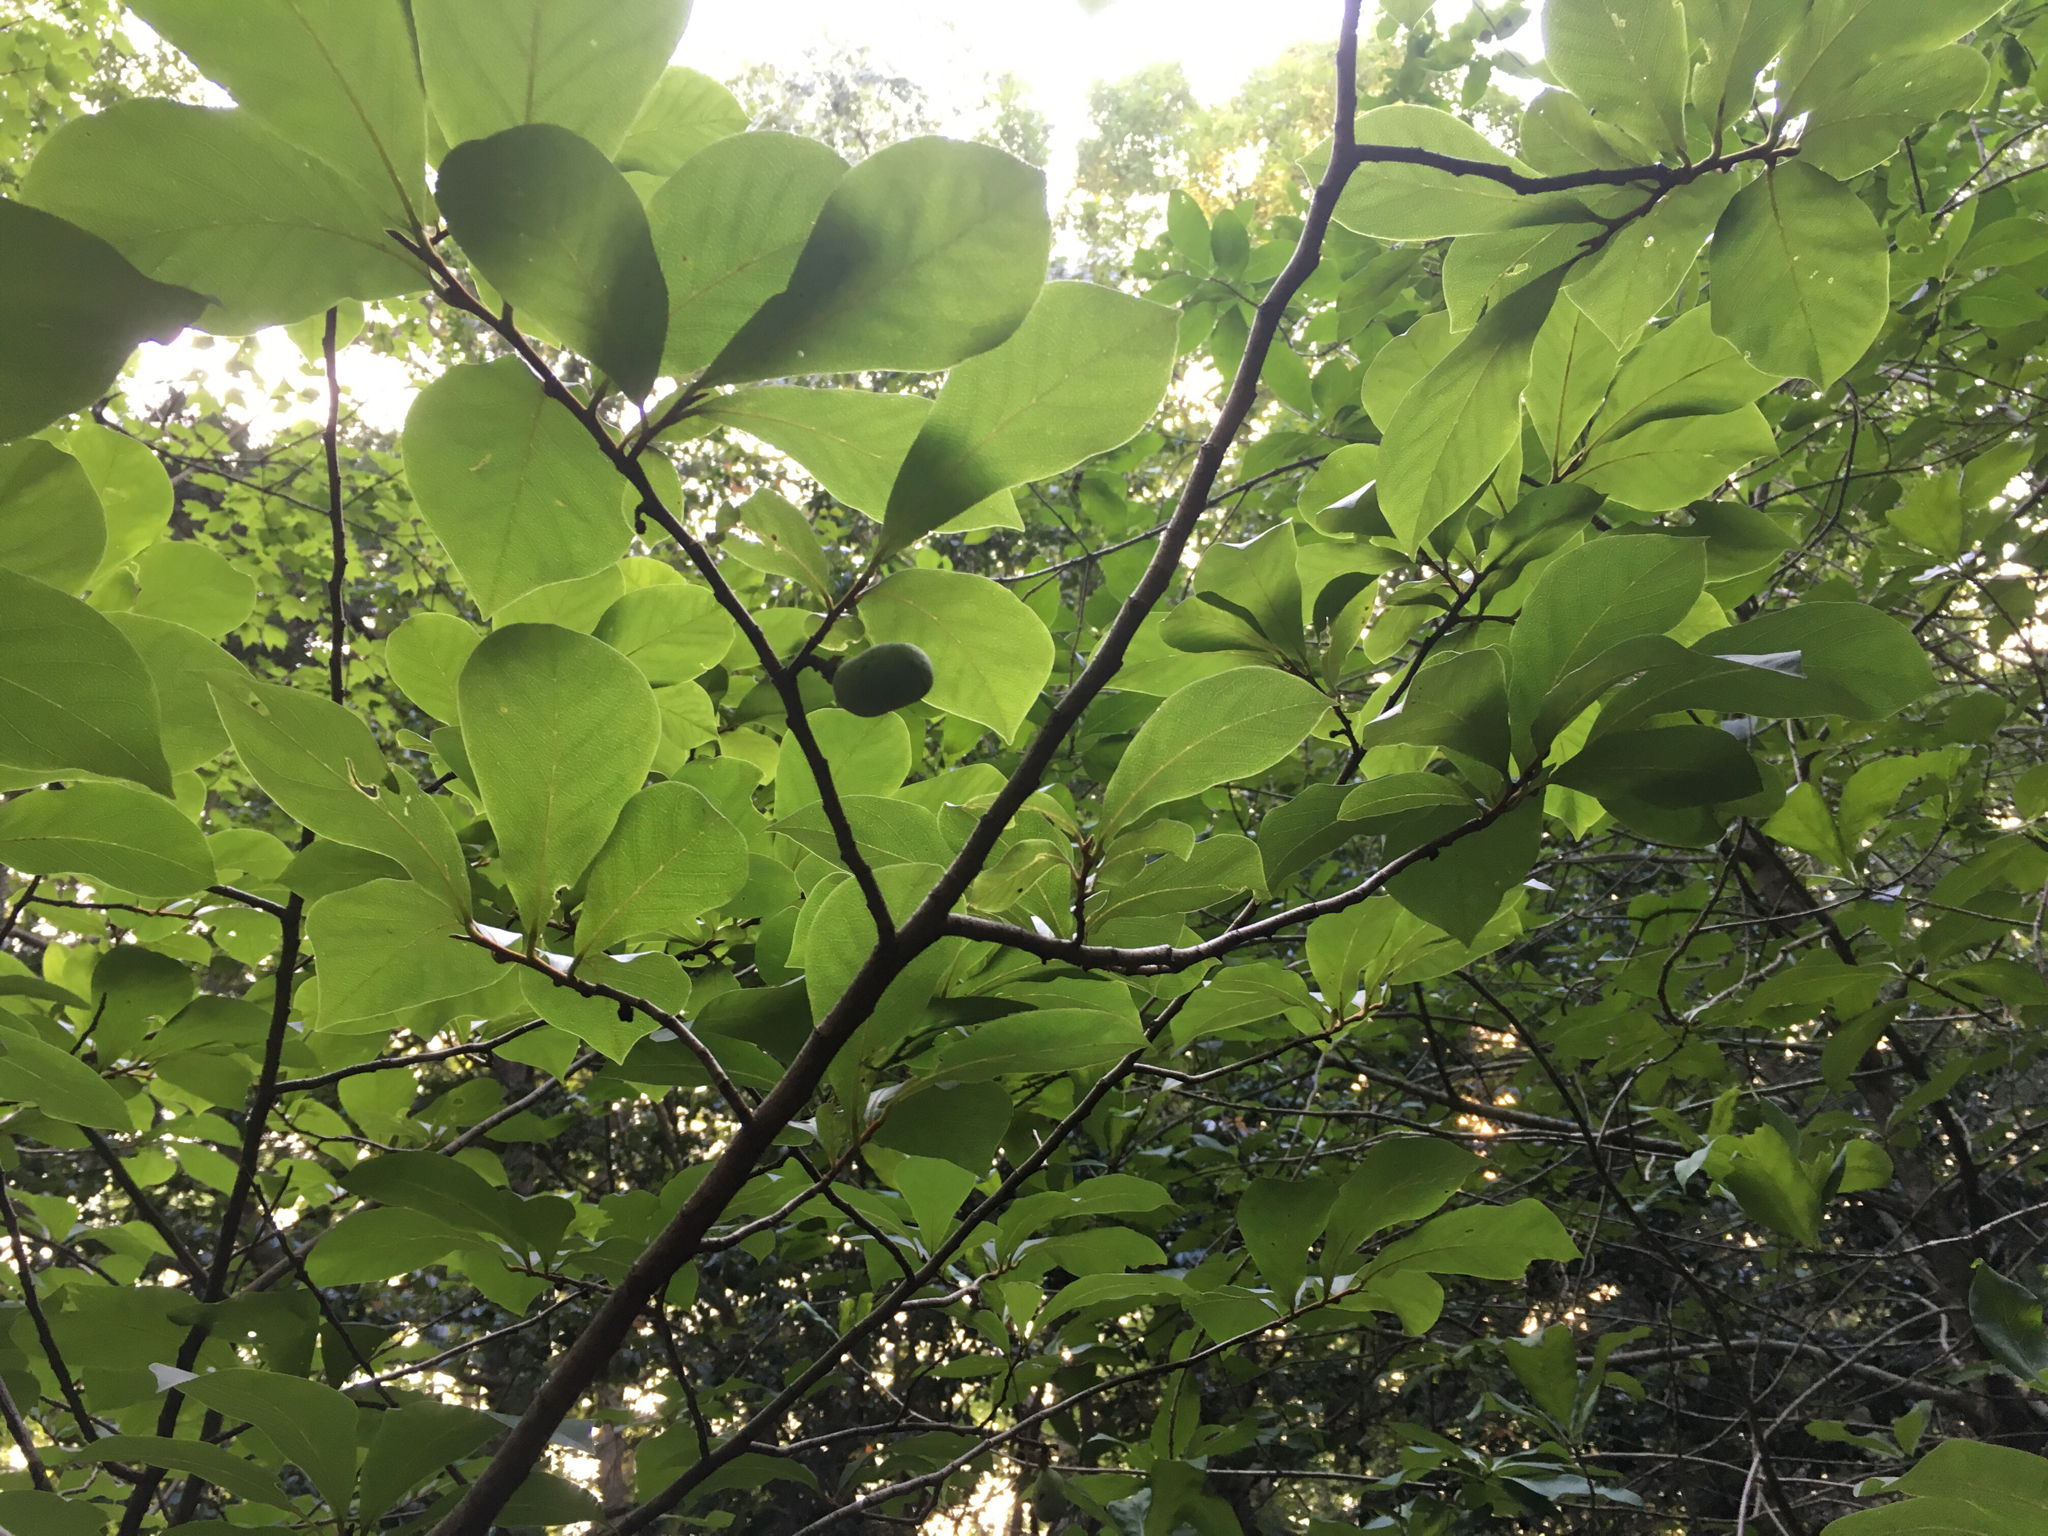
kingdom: Plantae
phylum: Tracheophyta
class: Magnoliopsida
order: Magnoliales
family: Annonaceae
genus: Asimina
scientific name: Asimina parviflora
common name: Dwarf pawpaw
